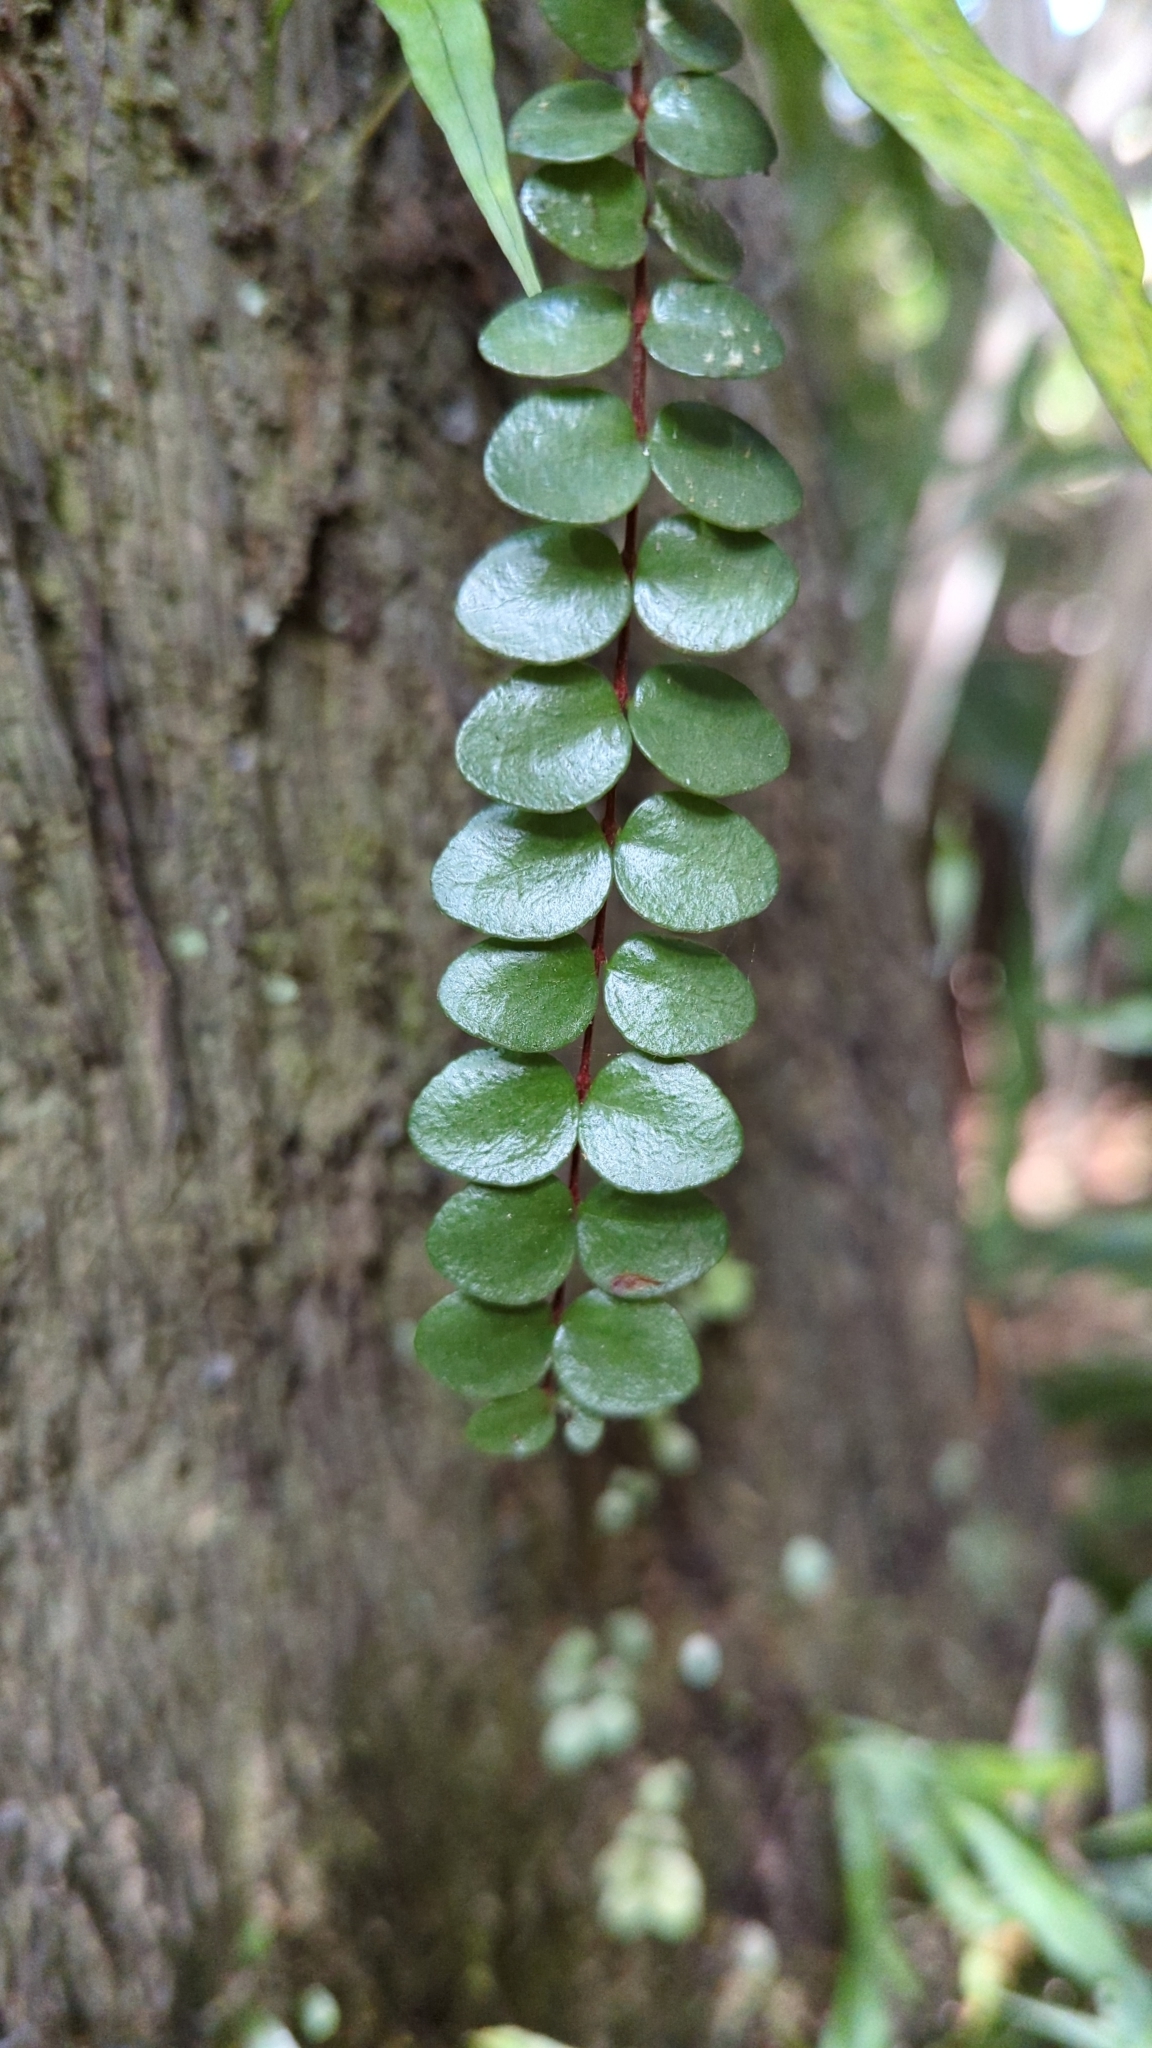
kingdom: Plantae
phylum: Tracheophyta
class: Magnoliopsida
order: Myrtales
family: Myrtaceae
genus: Metrosideros
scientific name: Metrosideros diffusa
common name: Small ratavine
